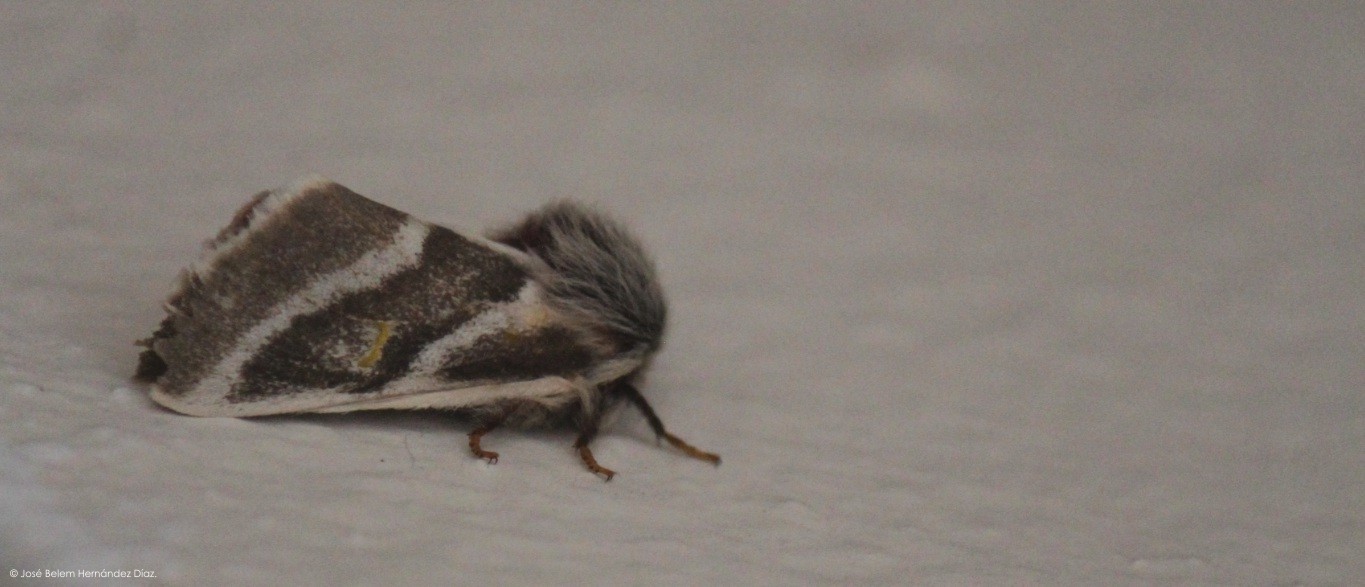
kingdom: Animalia
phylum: Arthropoda
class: Insecta
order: Lepidoptera
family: Saturniidae
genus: Hemileuca
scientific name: Hemileuca tricolor
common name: Tricolor buckmoth
